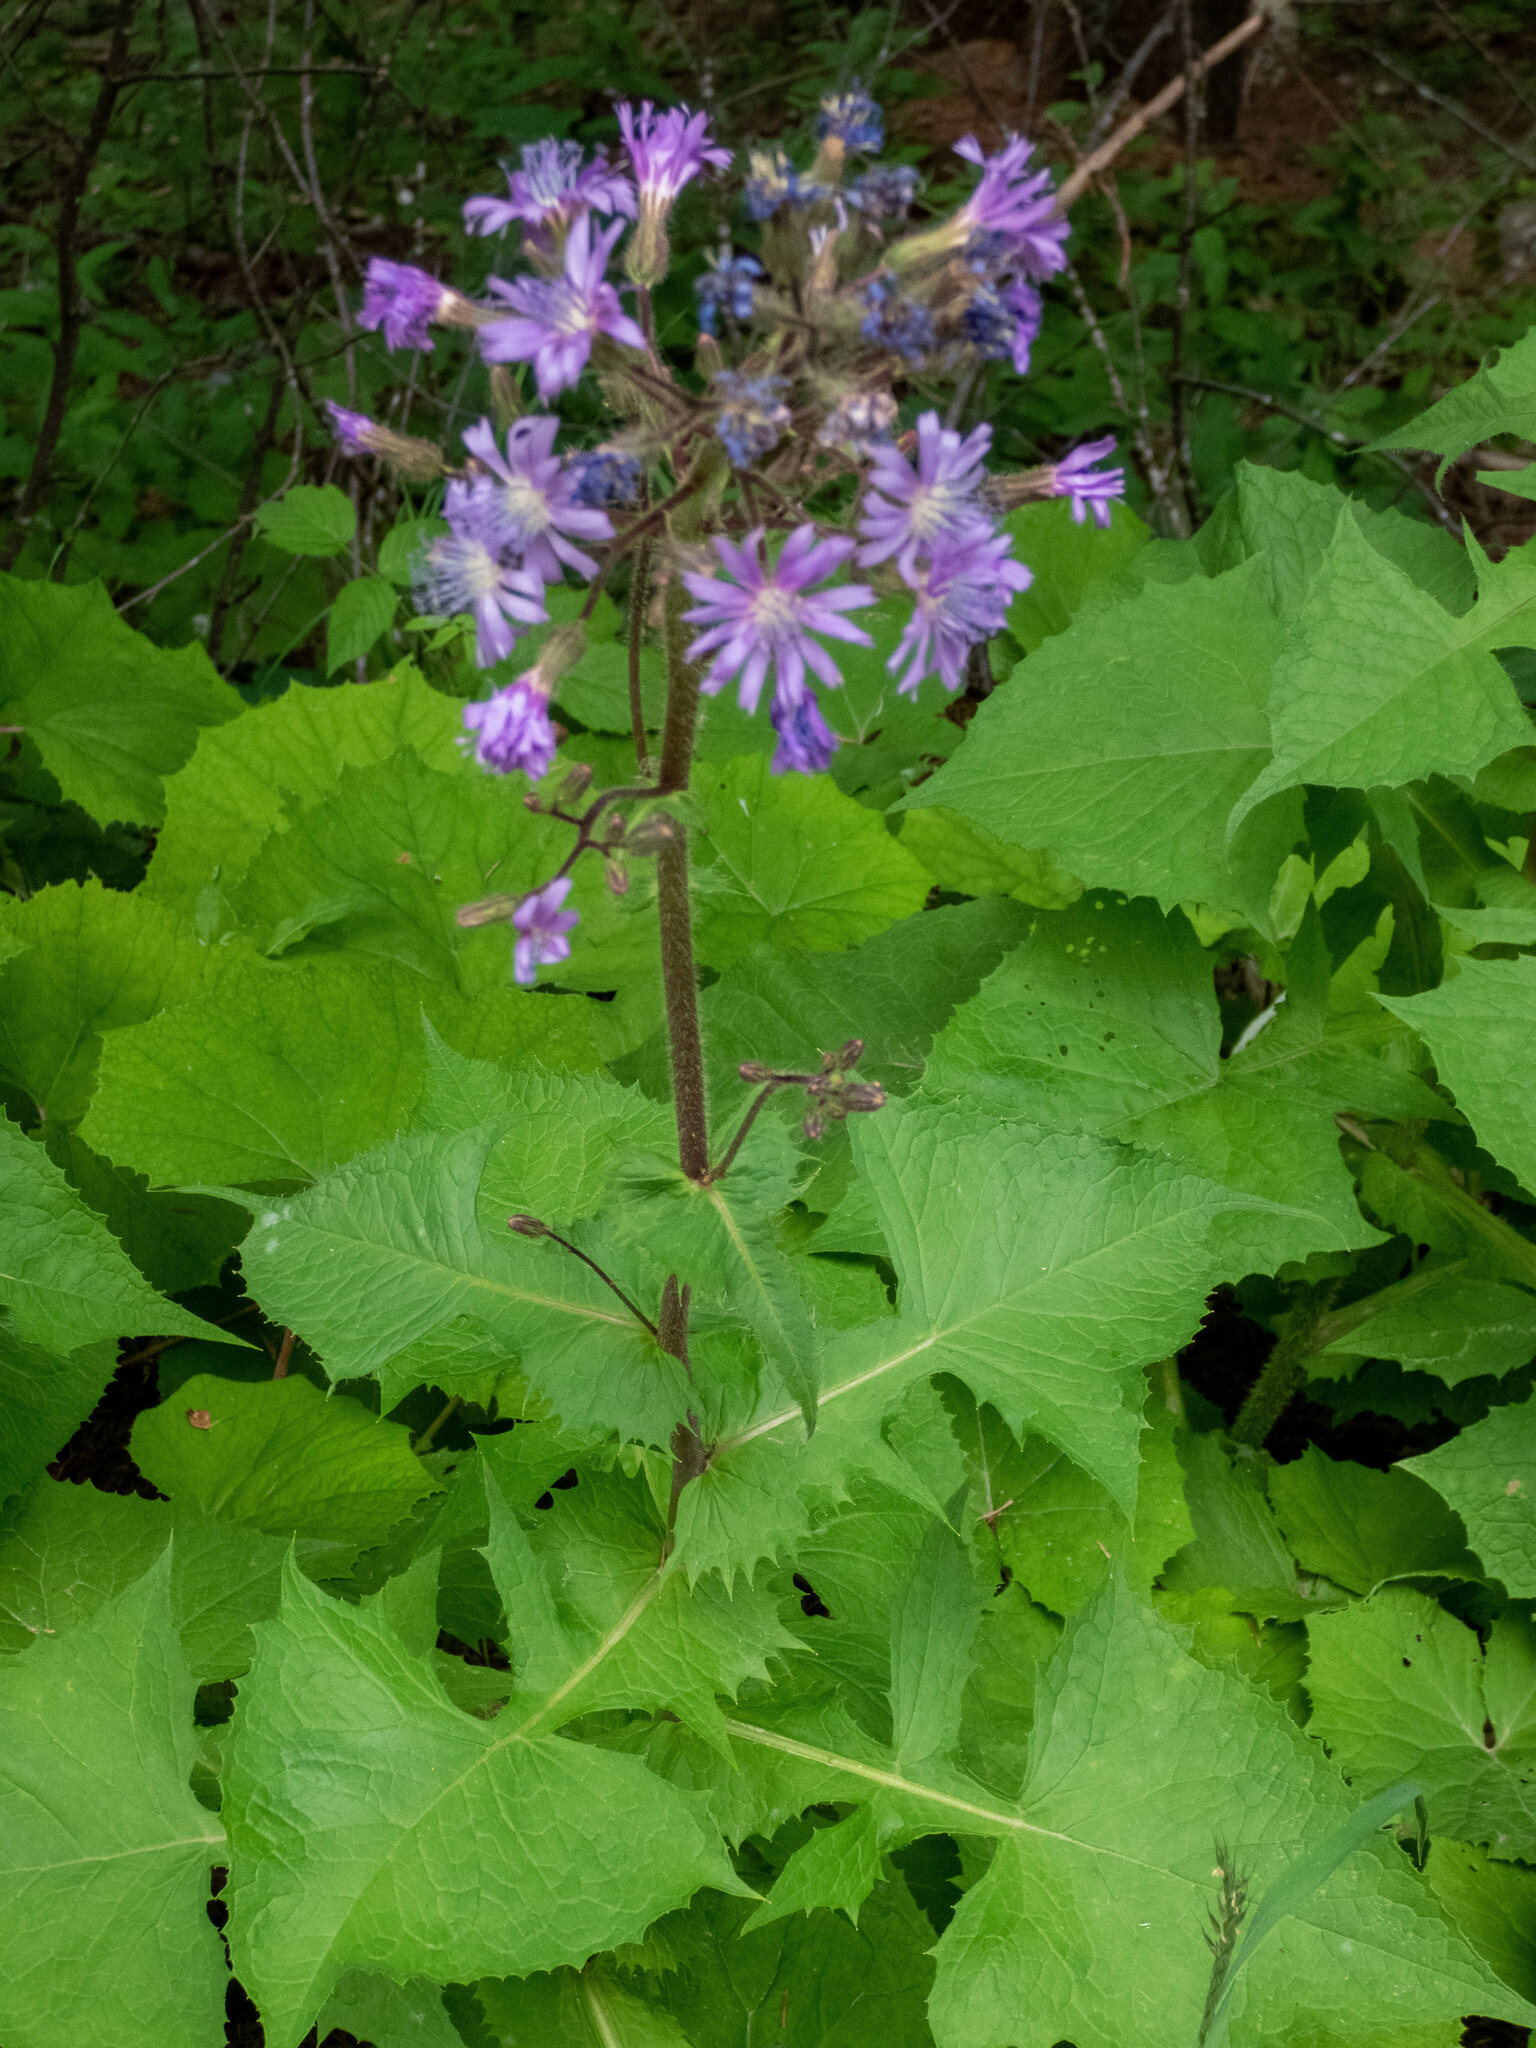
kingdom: Plantae
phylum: Tracheophyta
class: Magnoliopsida
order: Asterales
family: Asteraceae
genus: Cicerbita
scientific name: Cicerbita alpina
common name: Alpine blue-sow-thistle
